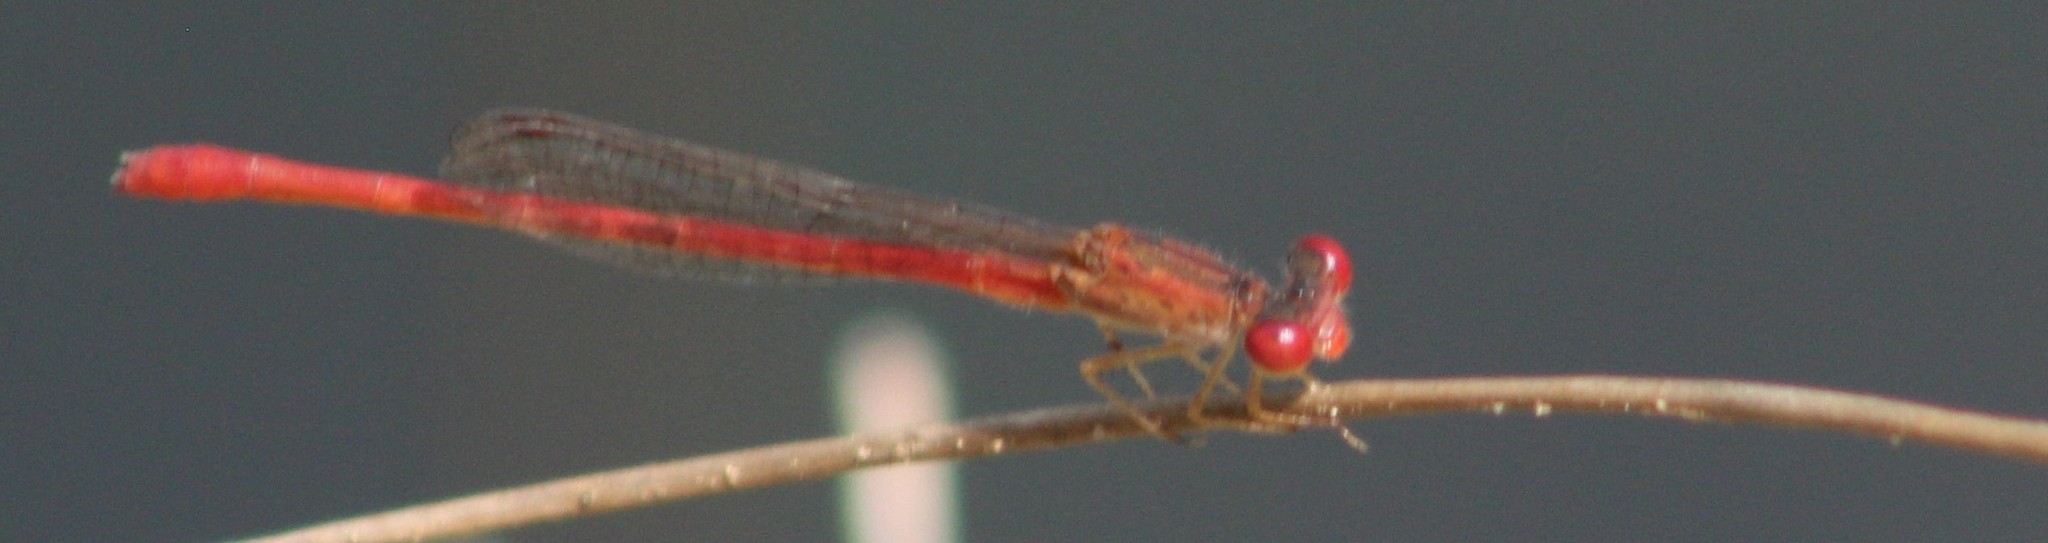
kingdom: Animalia
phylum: Arthropoda
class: Insecta
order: Odonata
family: Coenagrionidae
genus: Telebasis
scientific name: Telebasis salva
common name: Desert firetail
